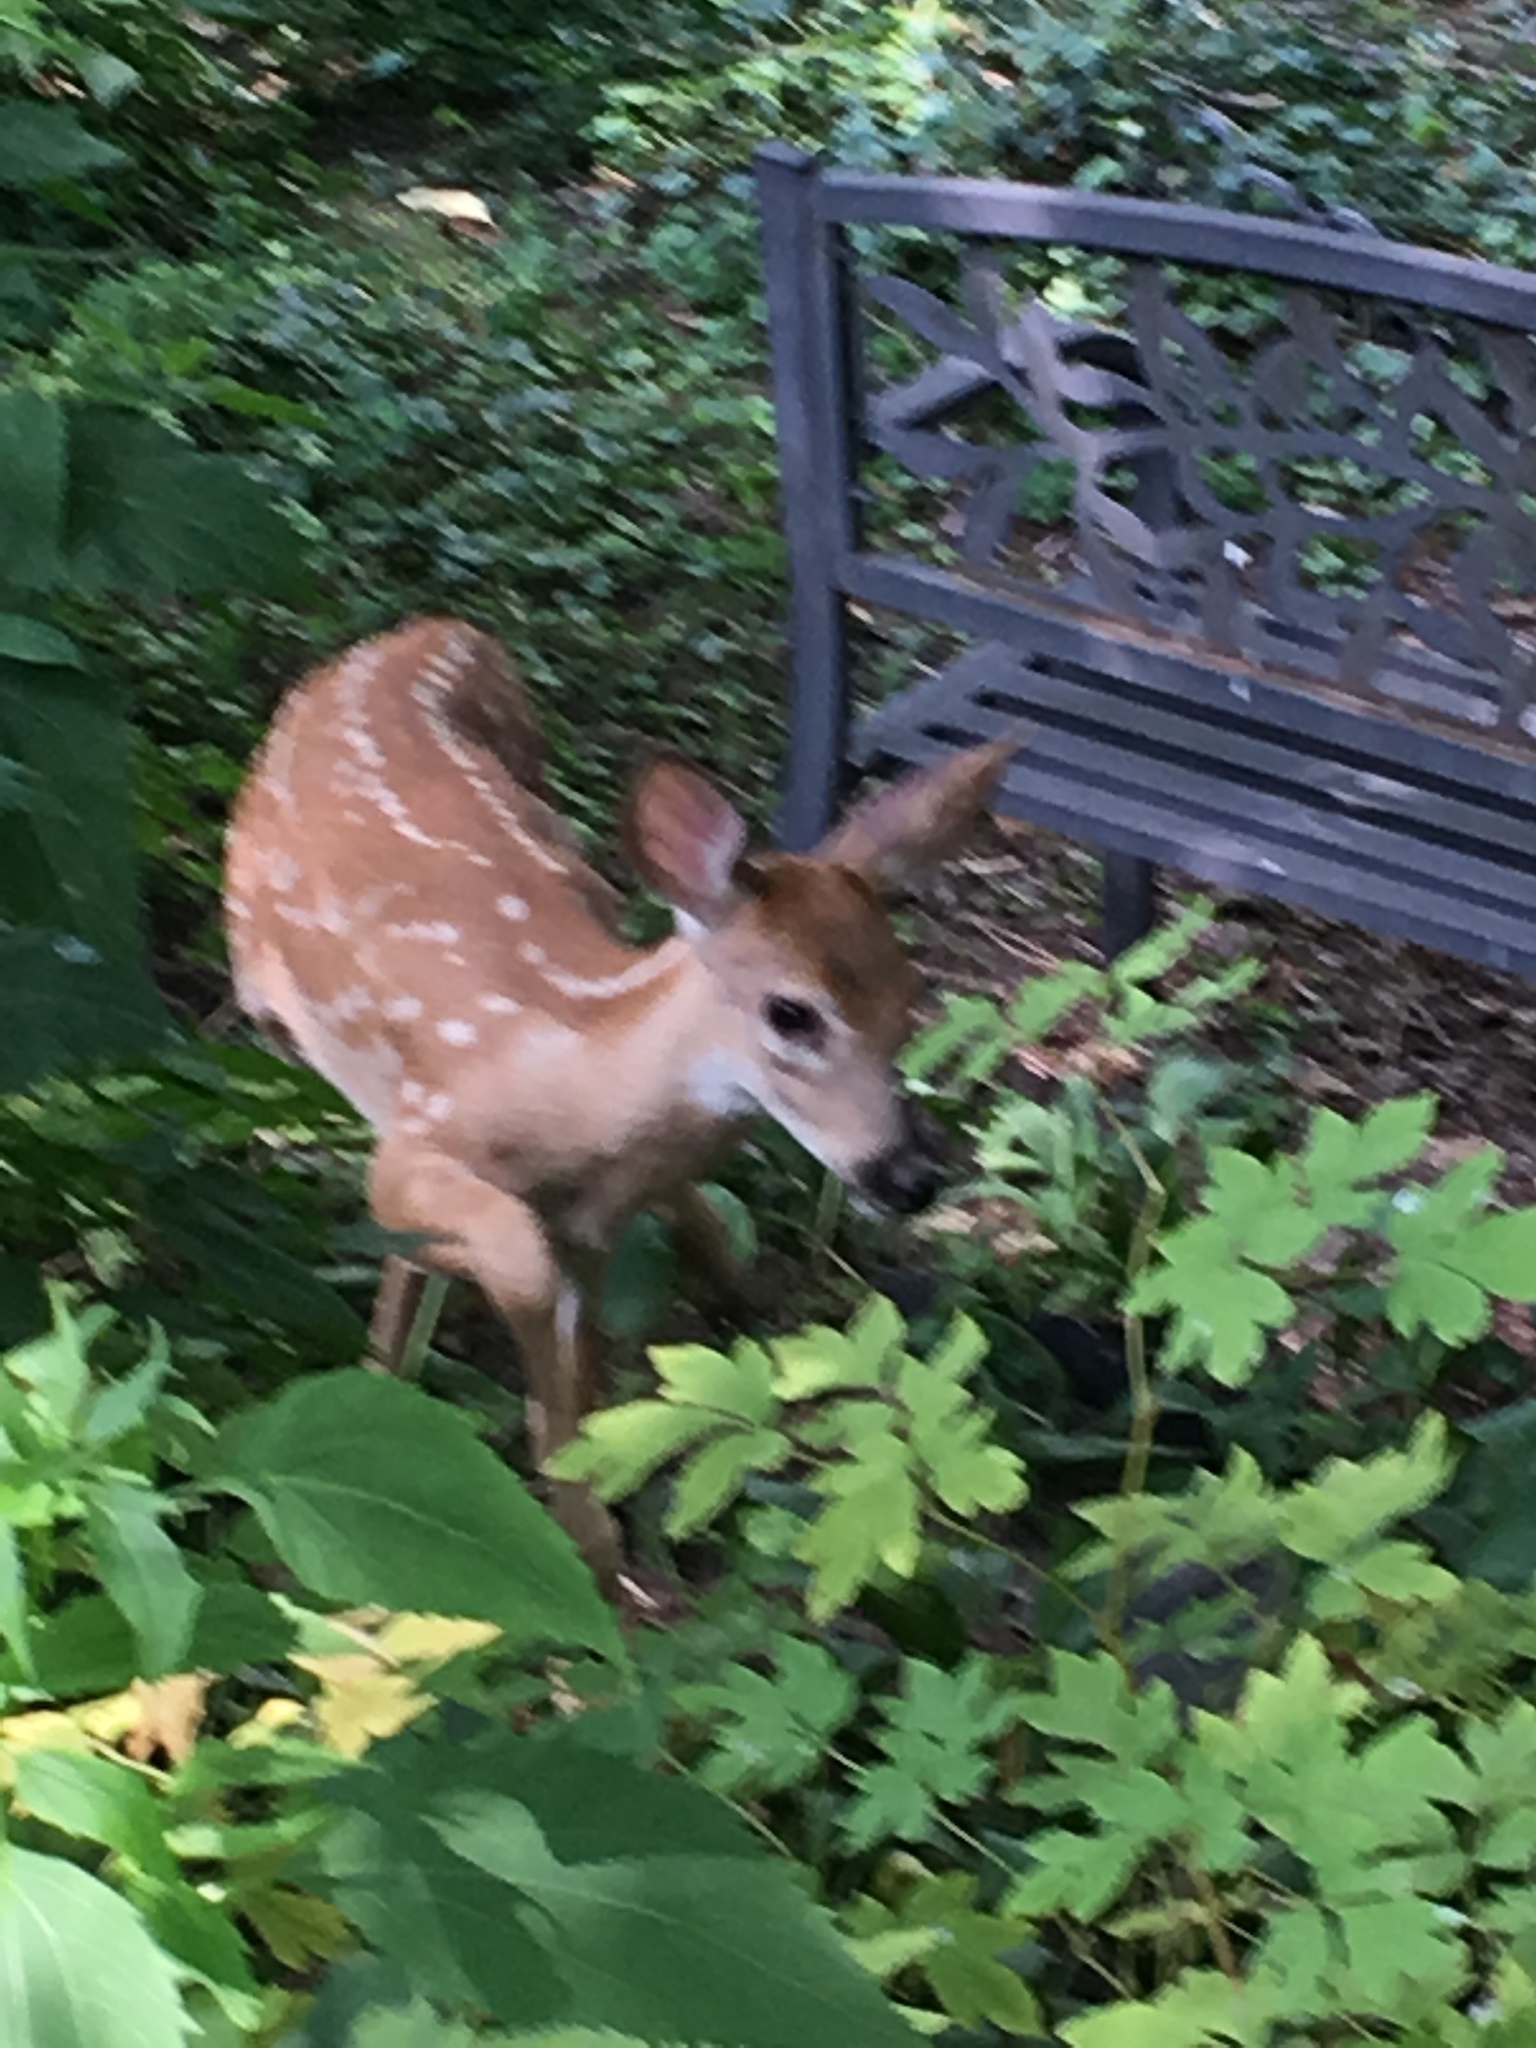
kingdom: Animalia
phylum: Chordata
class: Mammalia
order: Artiodactyla
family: Cervidae
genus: Odocoileus
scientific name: Odocoileus virginianus
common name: White-tailed deer
